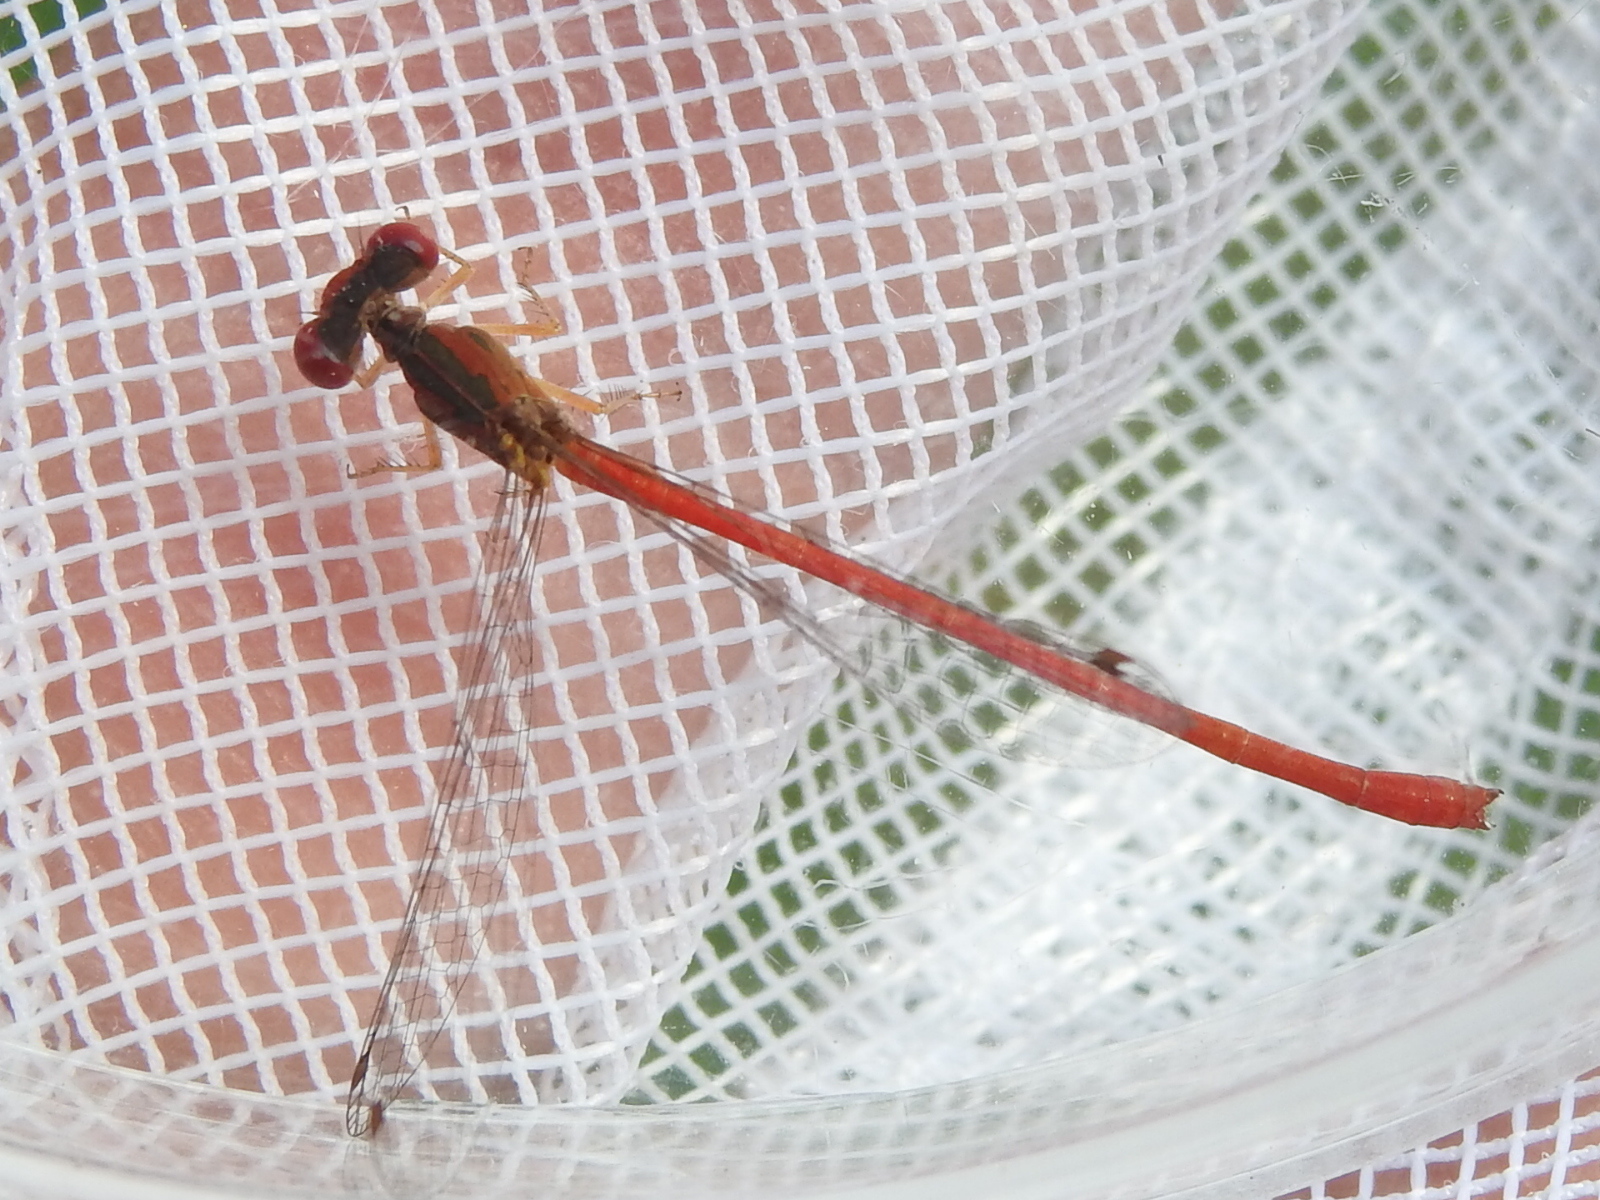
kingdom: Animalia
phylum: Arthropoda
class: Insecta
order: Odonata
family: Coenagrionidae
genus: Telebasis
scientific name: Telebasis salva
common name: Desert firetail
